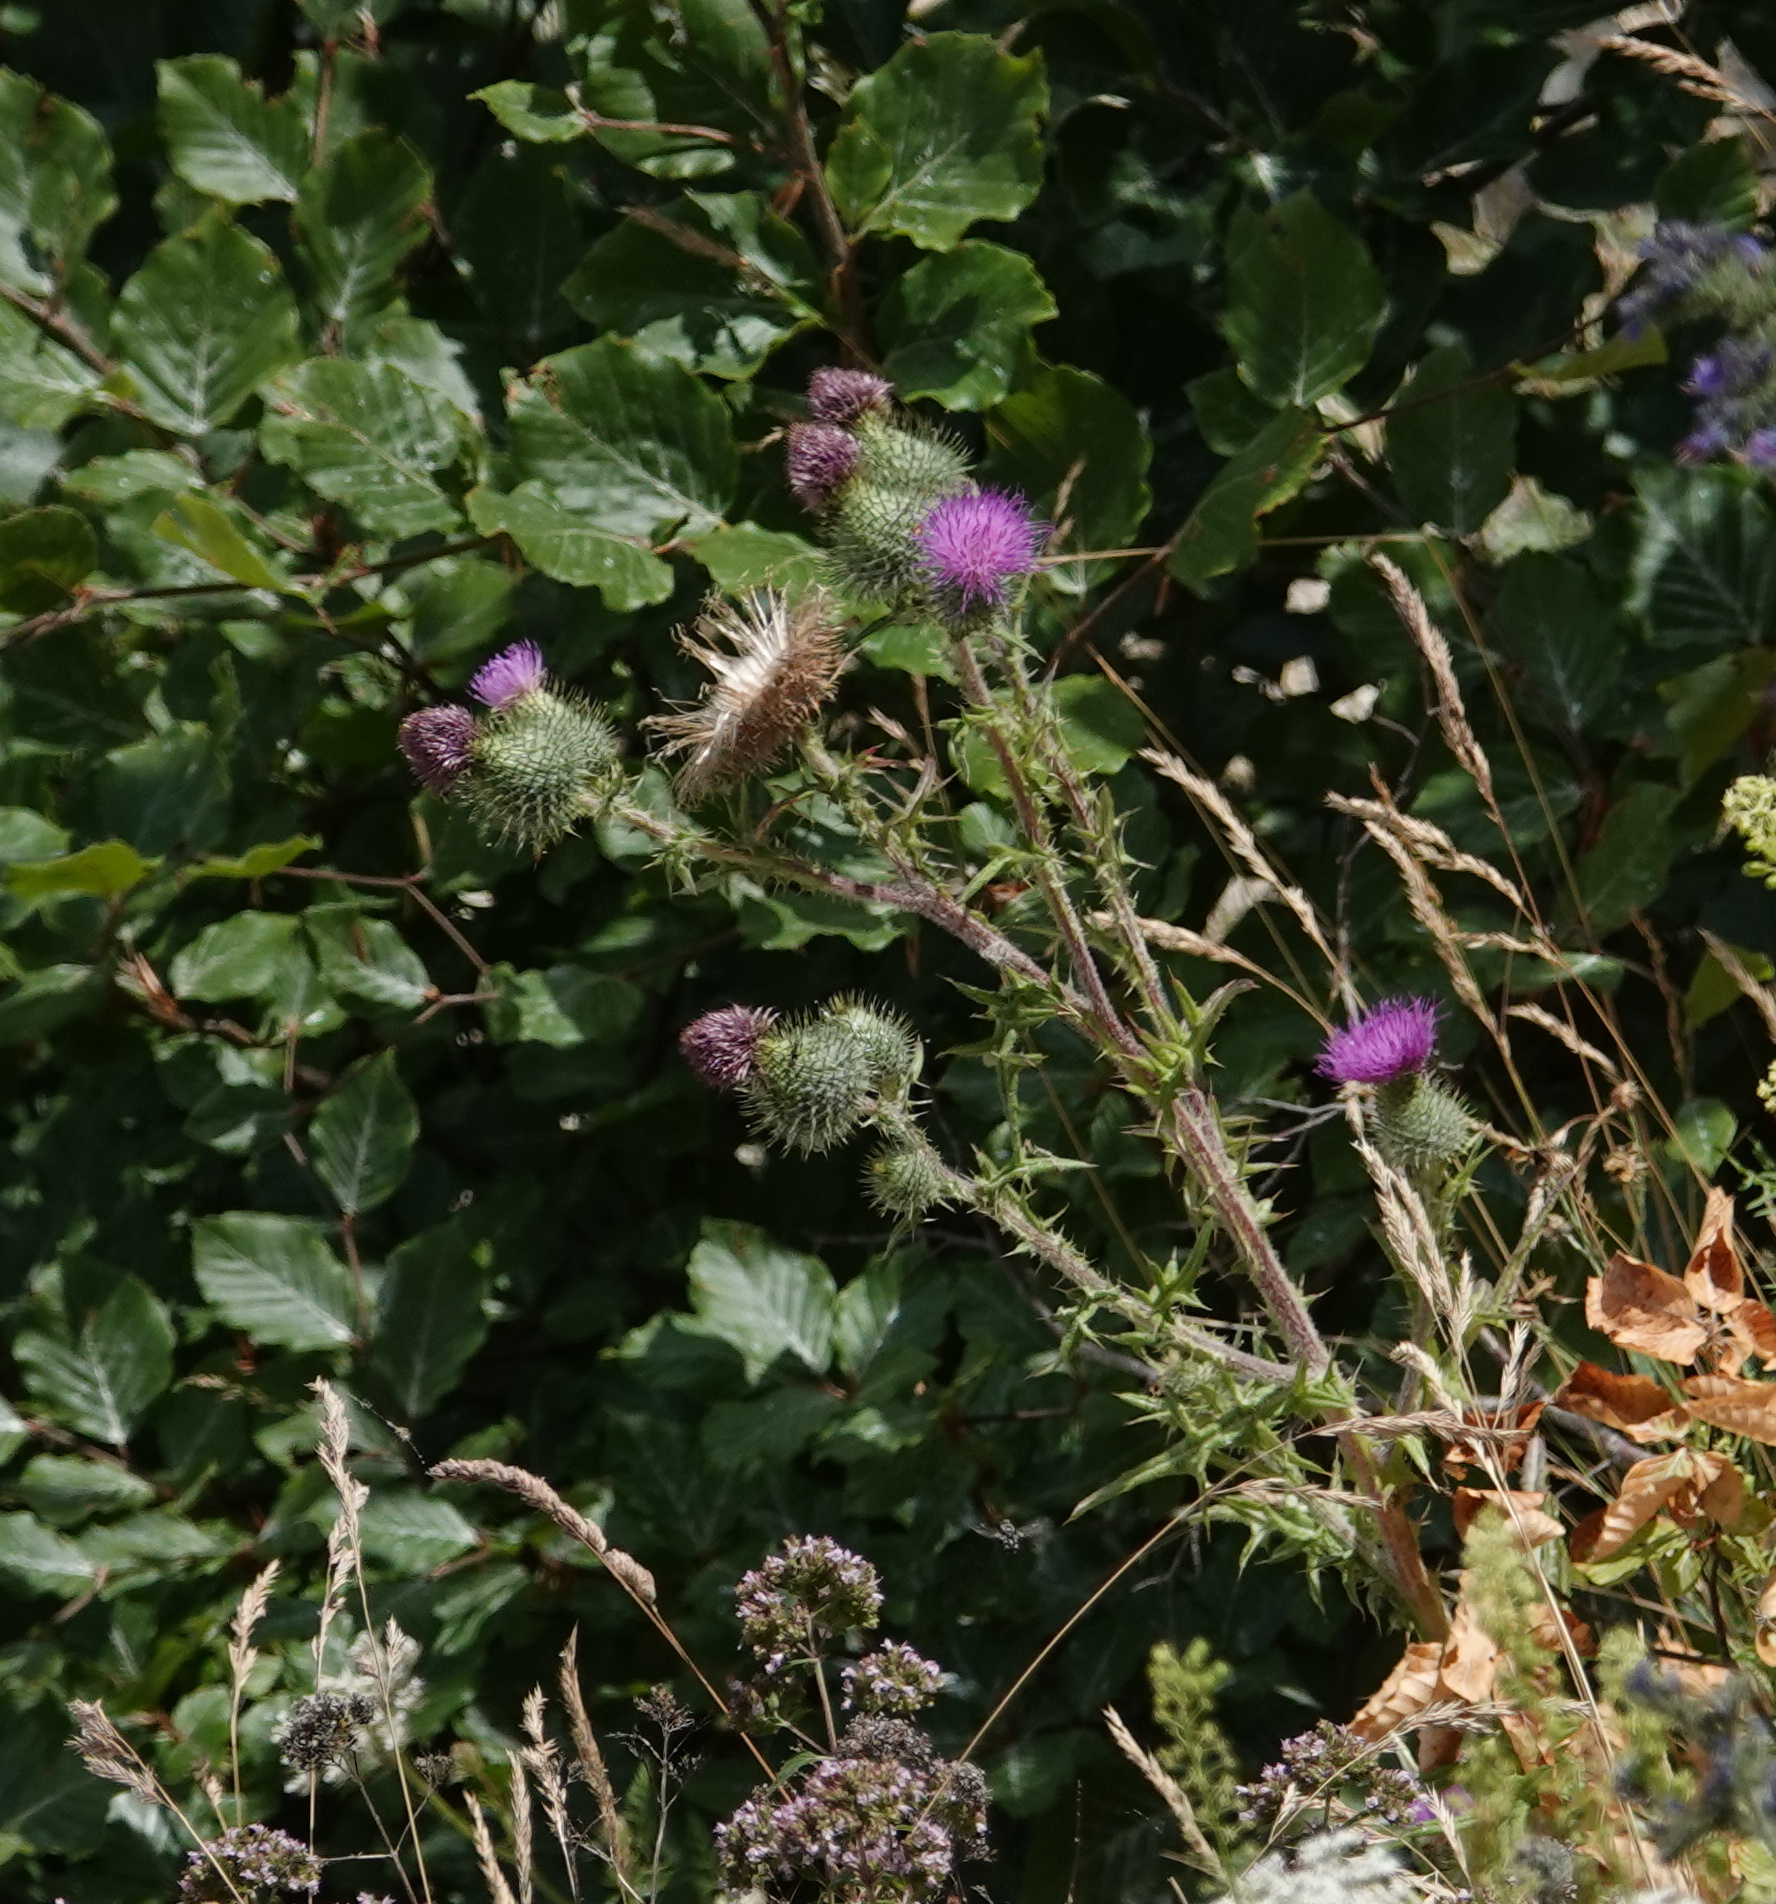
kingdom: Plantae
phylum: Tracheophyta
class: Magnoliopsida
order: Asterales
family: Asteraceae
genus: Cirsium
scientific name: Cirsium vulgare
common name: Bull thistle
